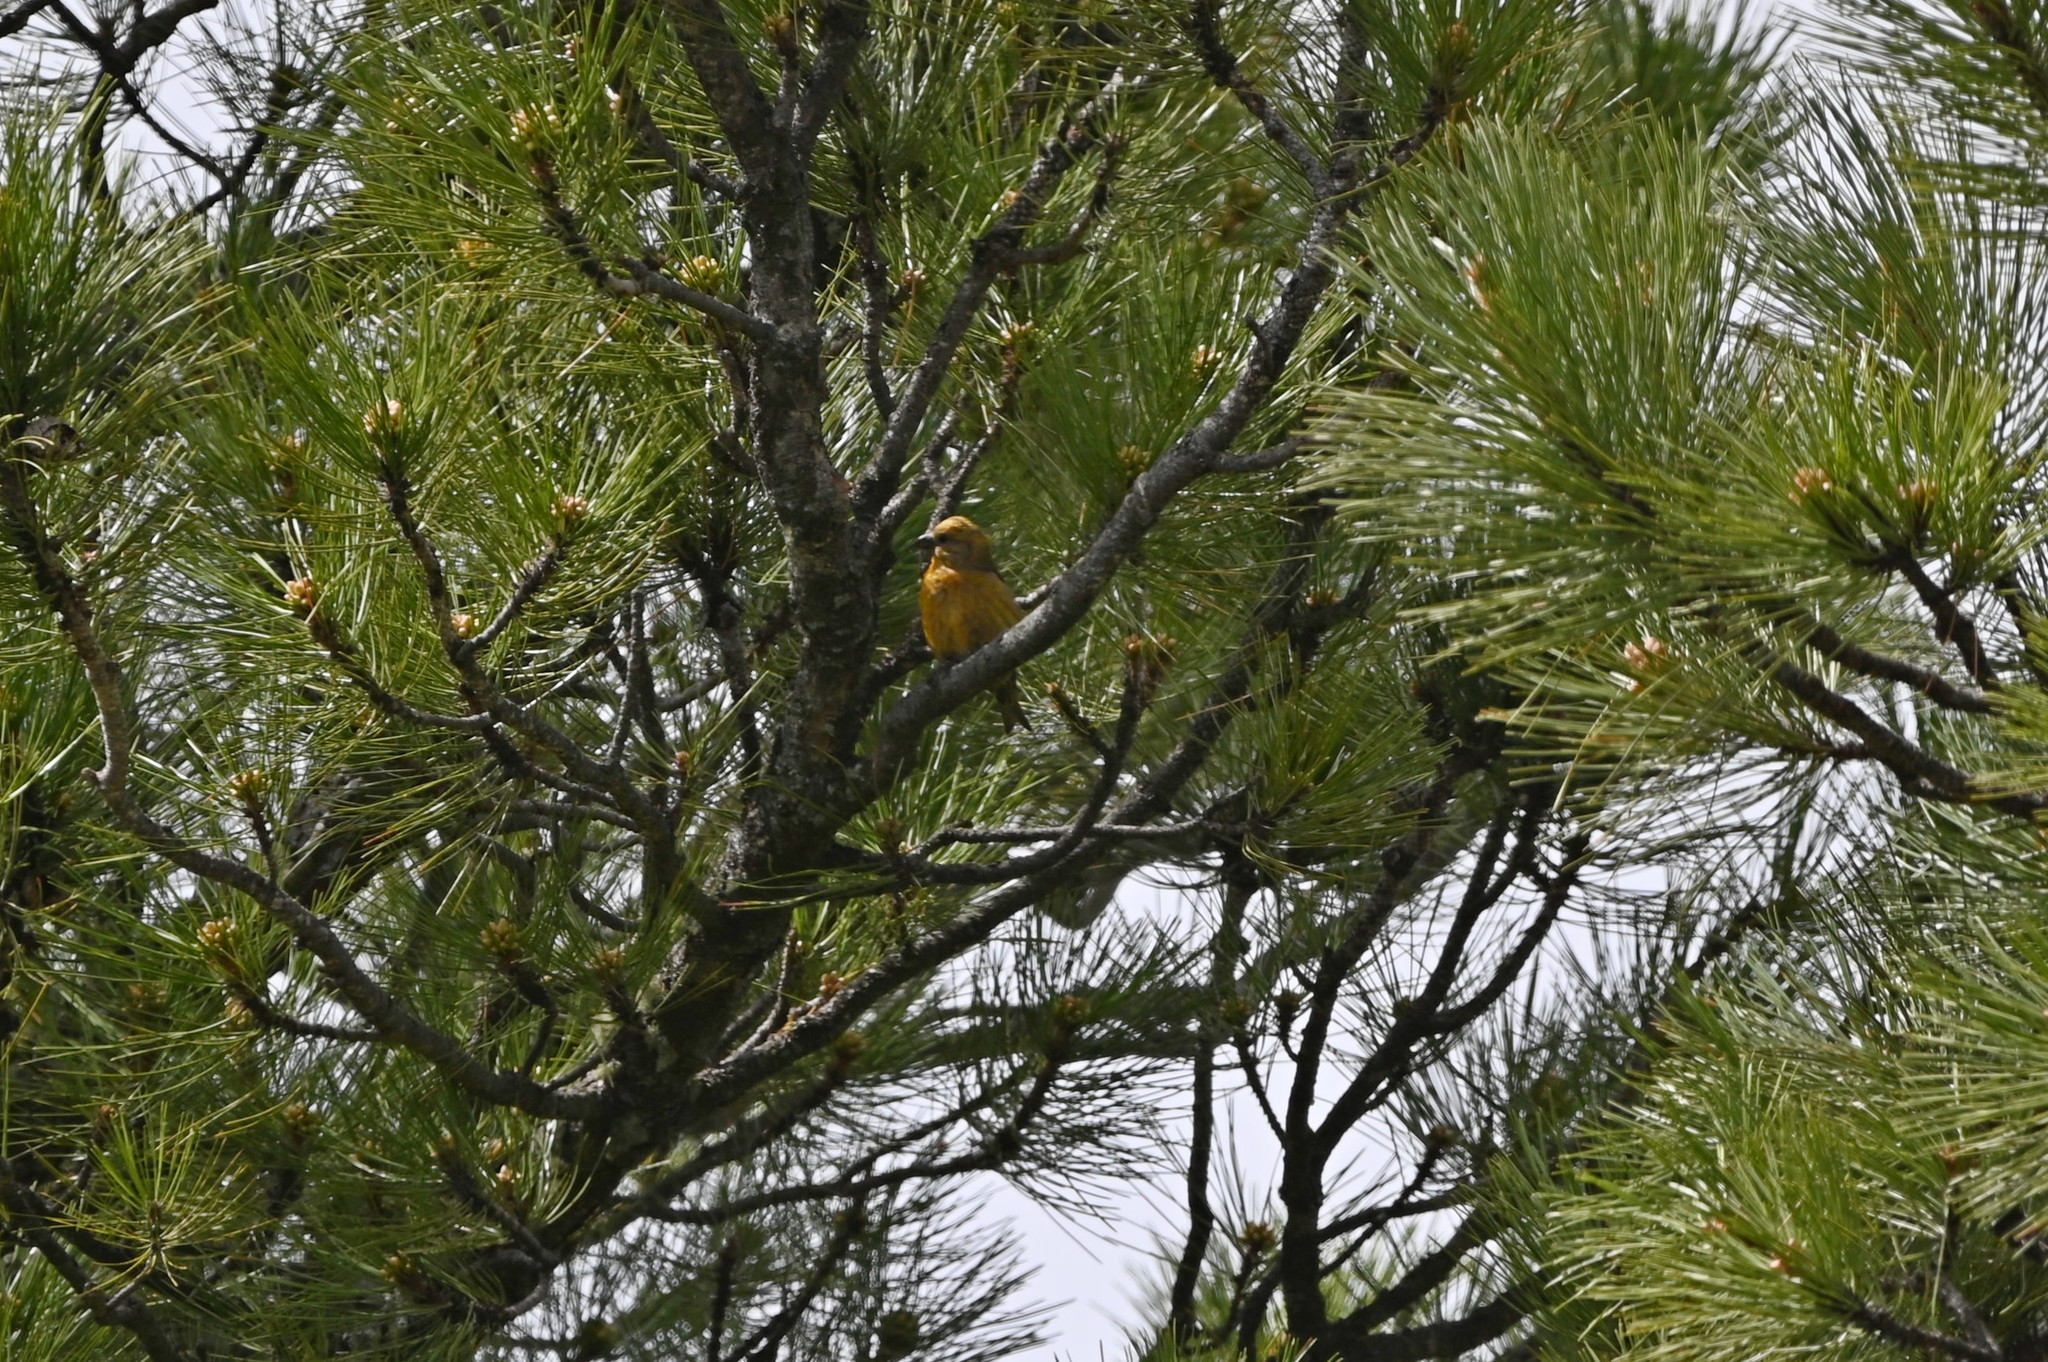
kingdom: Animalia
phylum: Chordata
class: Aves
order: Passeriformes
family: Fringillidae
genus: Loxia
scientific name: Loxia curvirostra
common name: Red crossbill
